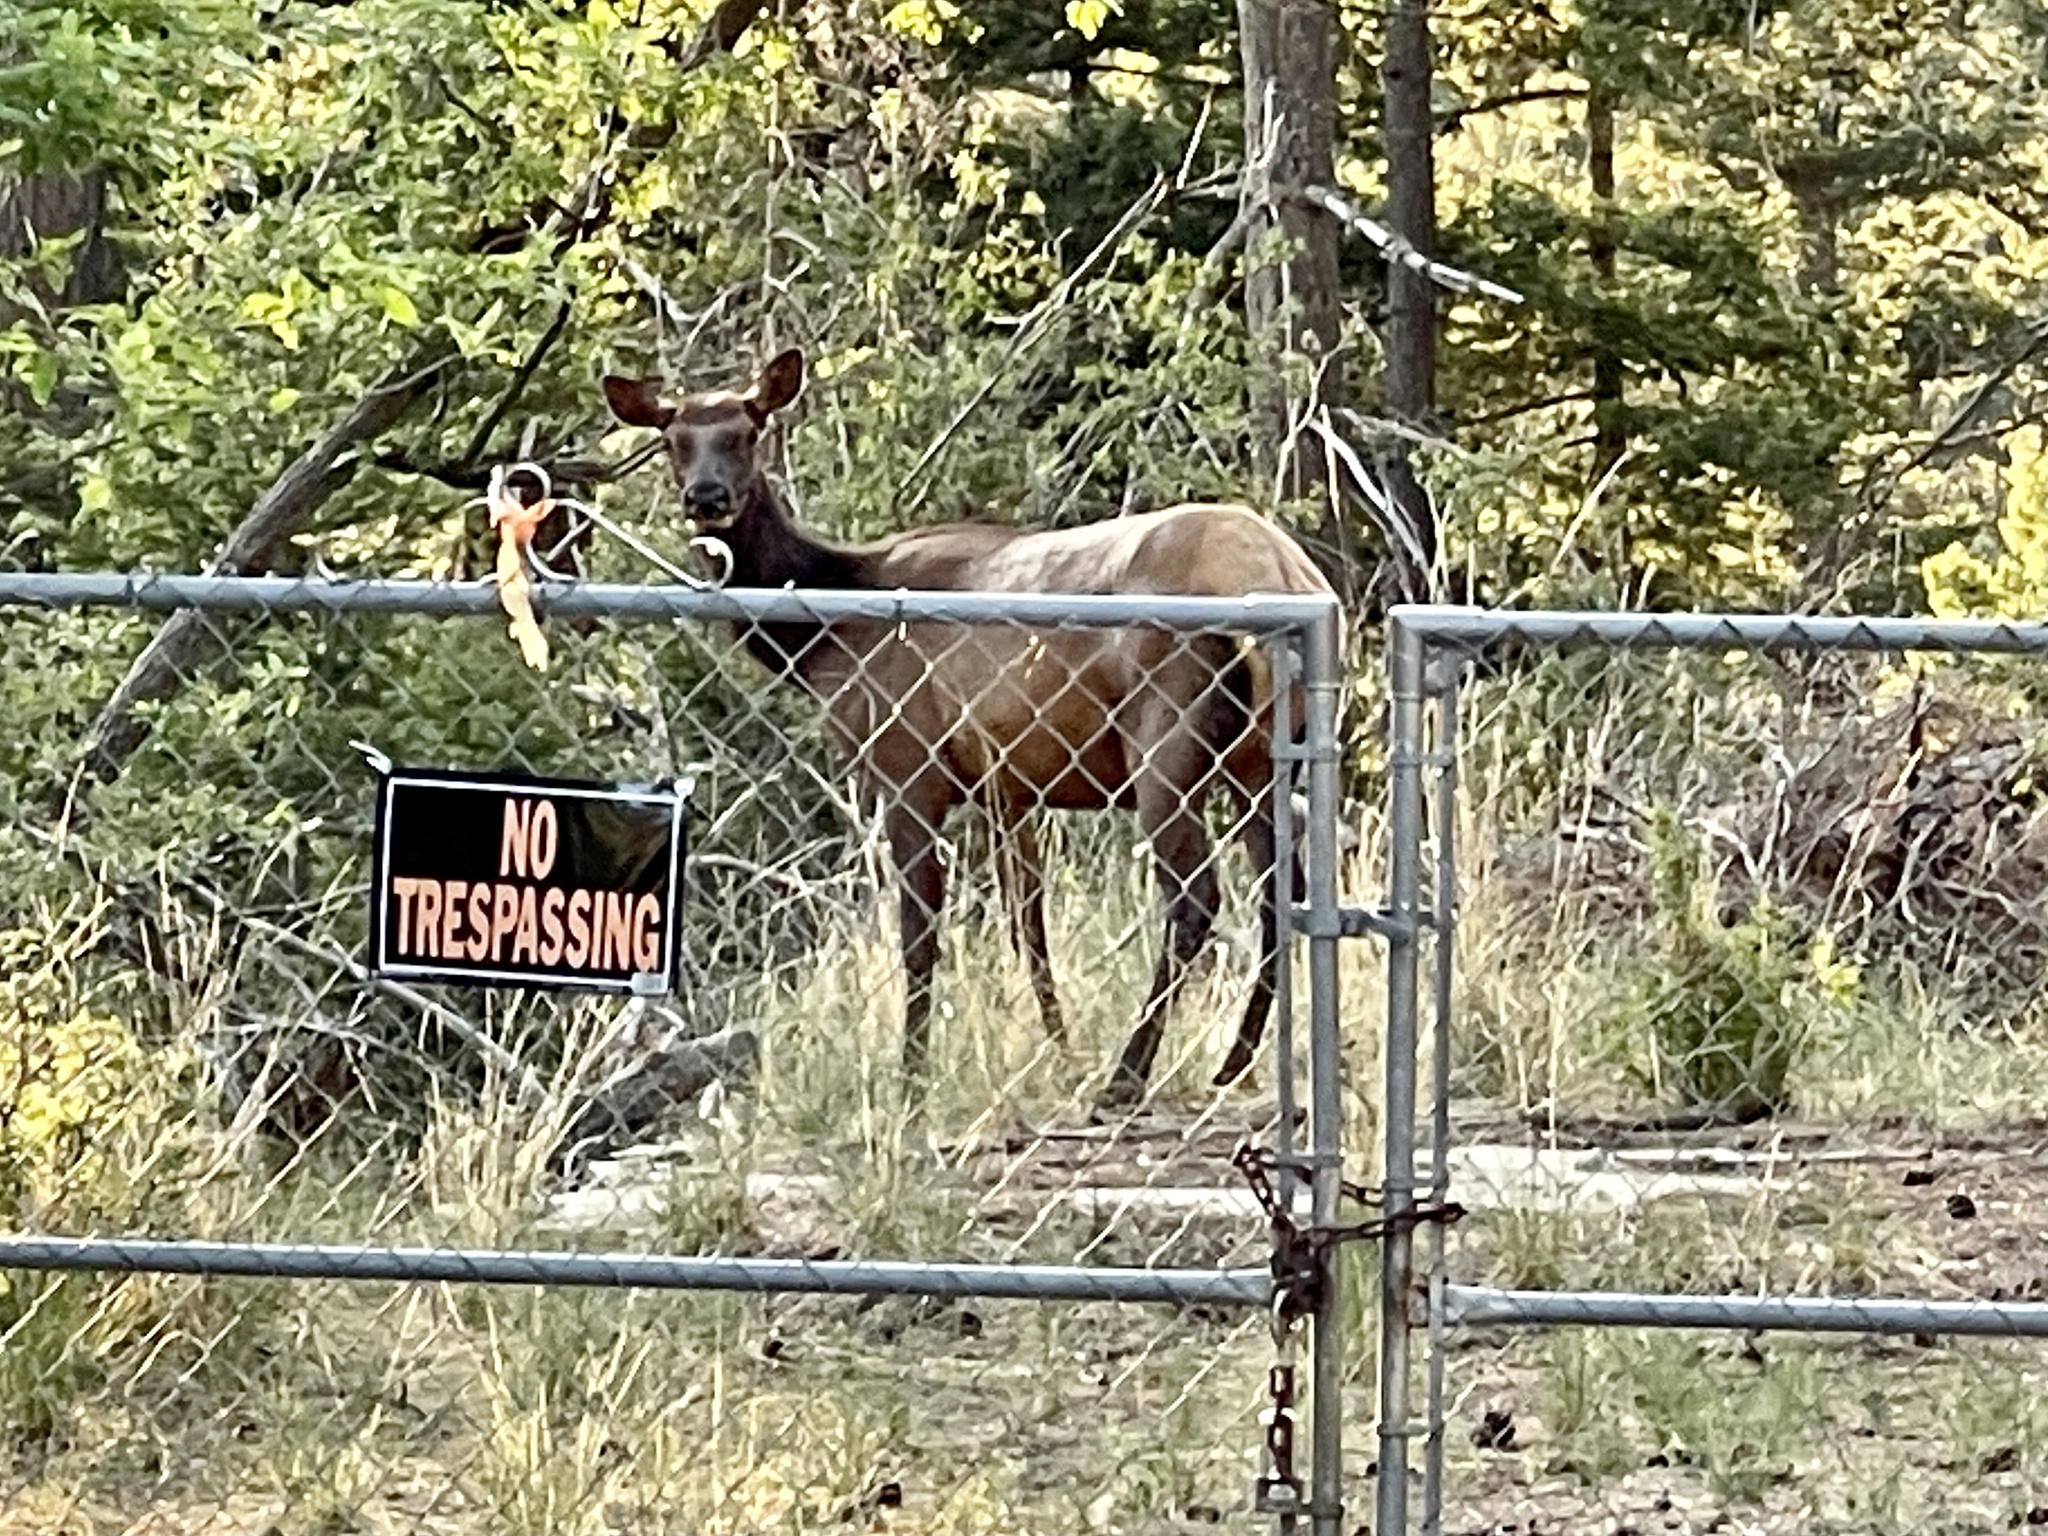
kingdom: Animalia
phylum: Chordata
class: Mammalia
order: Artiodactyla
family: Cervidae
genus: Cervus
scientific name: Cervus elaphus
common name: Red deer
